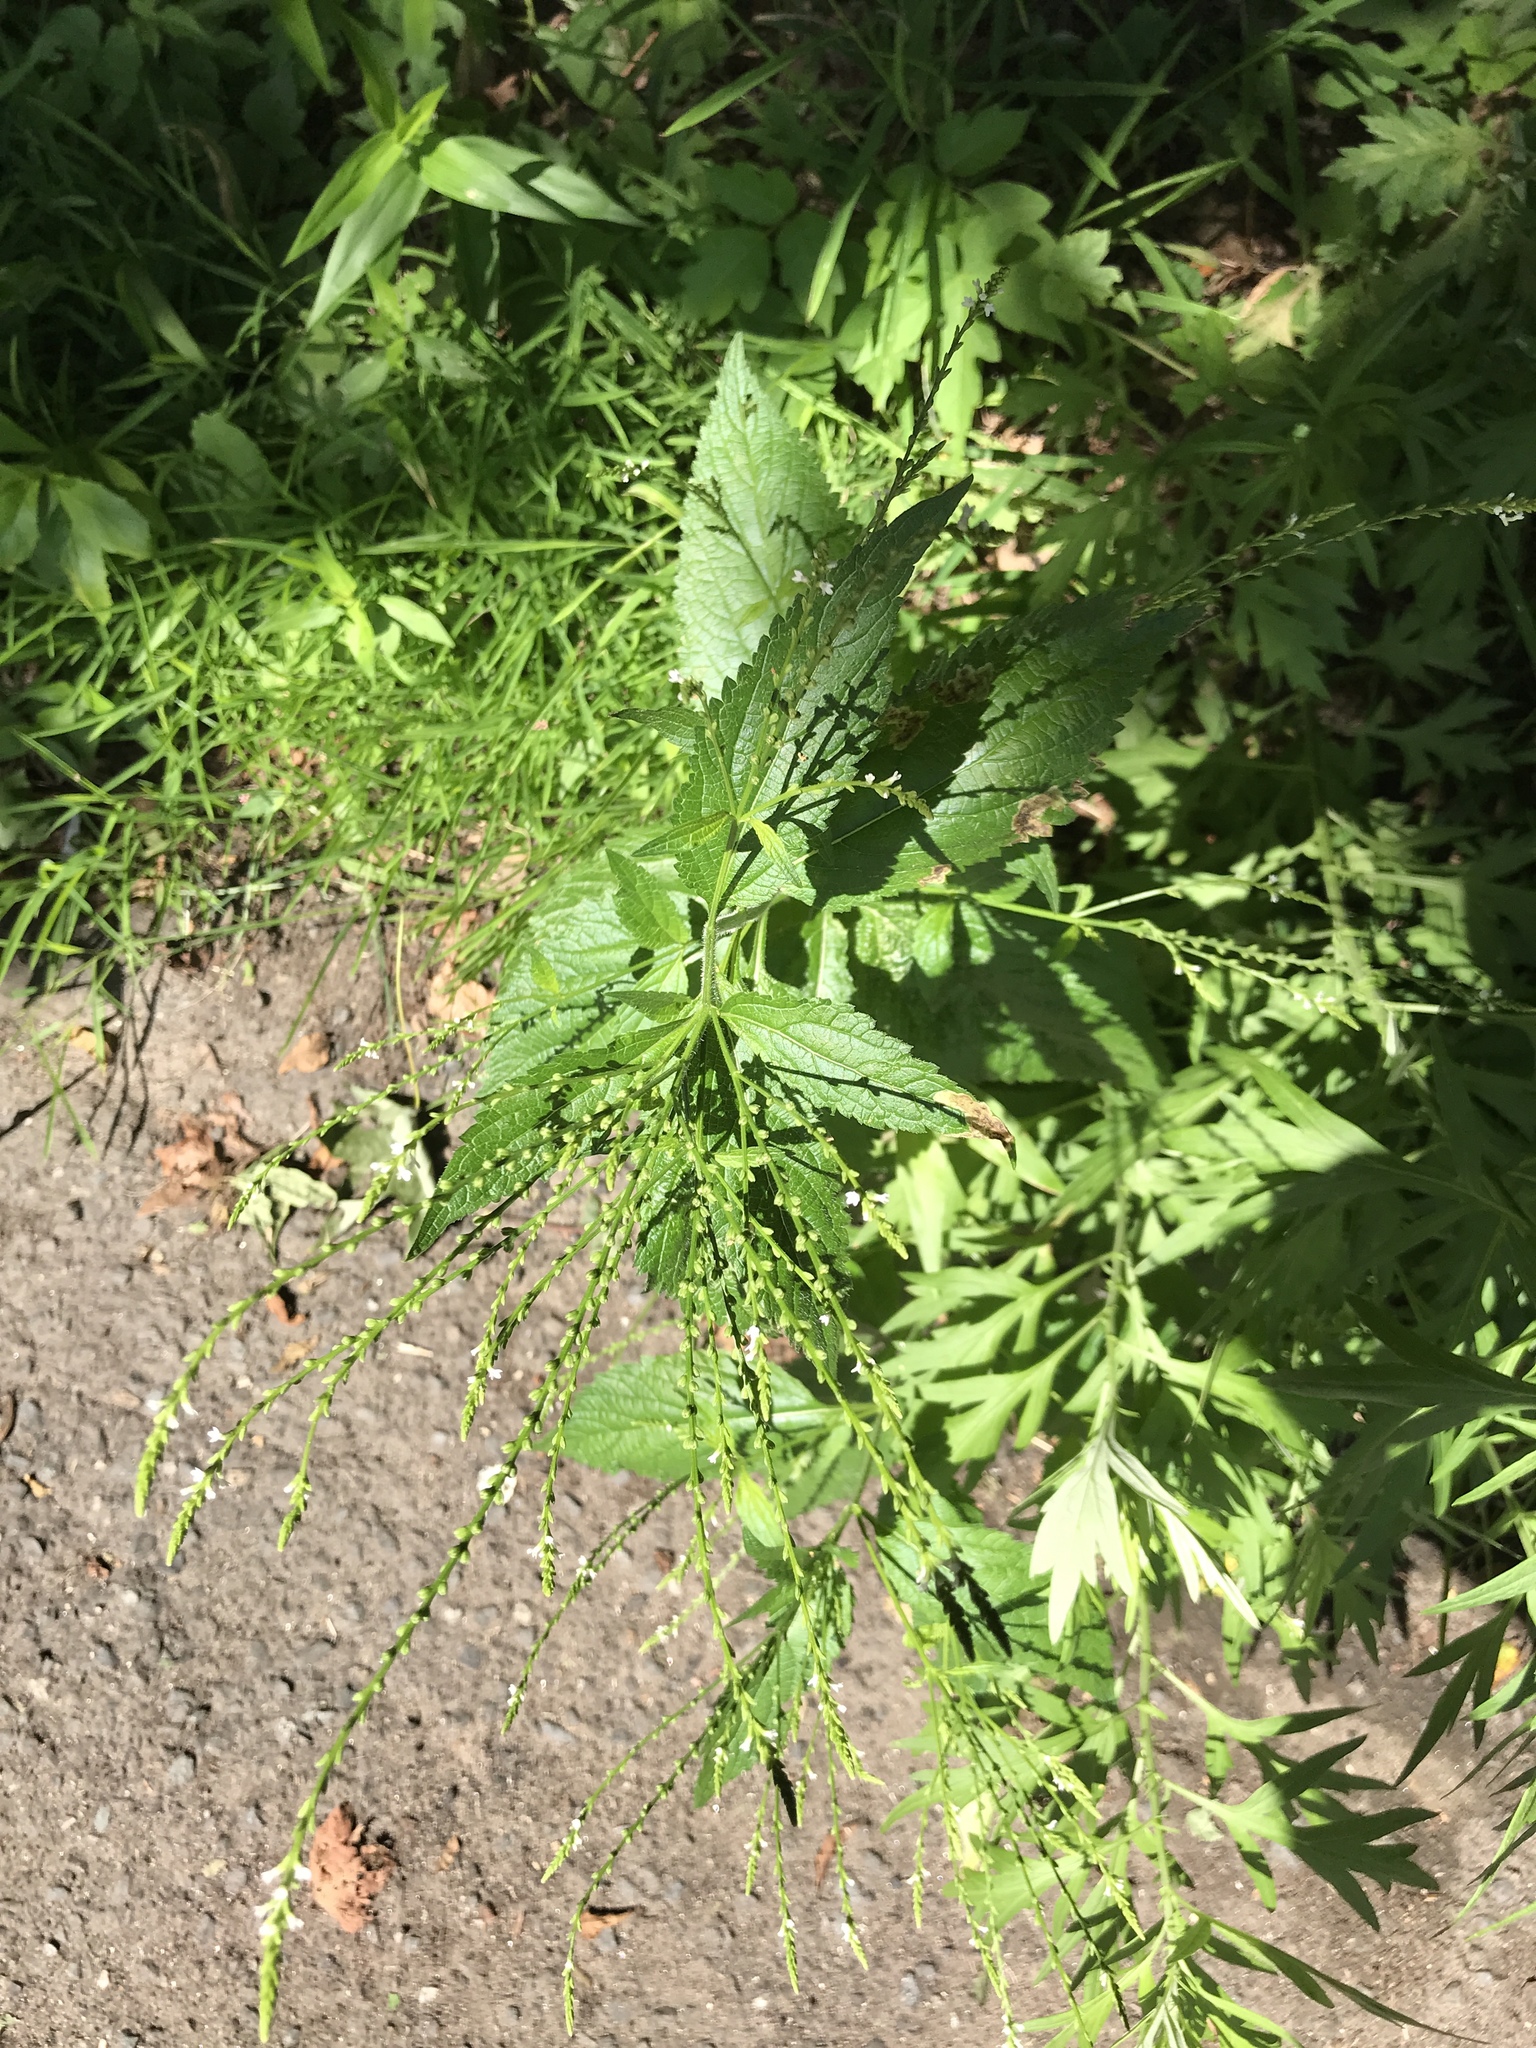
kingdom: Plantae
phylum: Tracheophyta
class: Magnoliopsida
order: Lamiales
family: Verbenaceae
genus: Verbena
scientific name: Verbena urticifolia
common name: Nettle-leaved vervain
